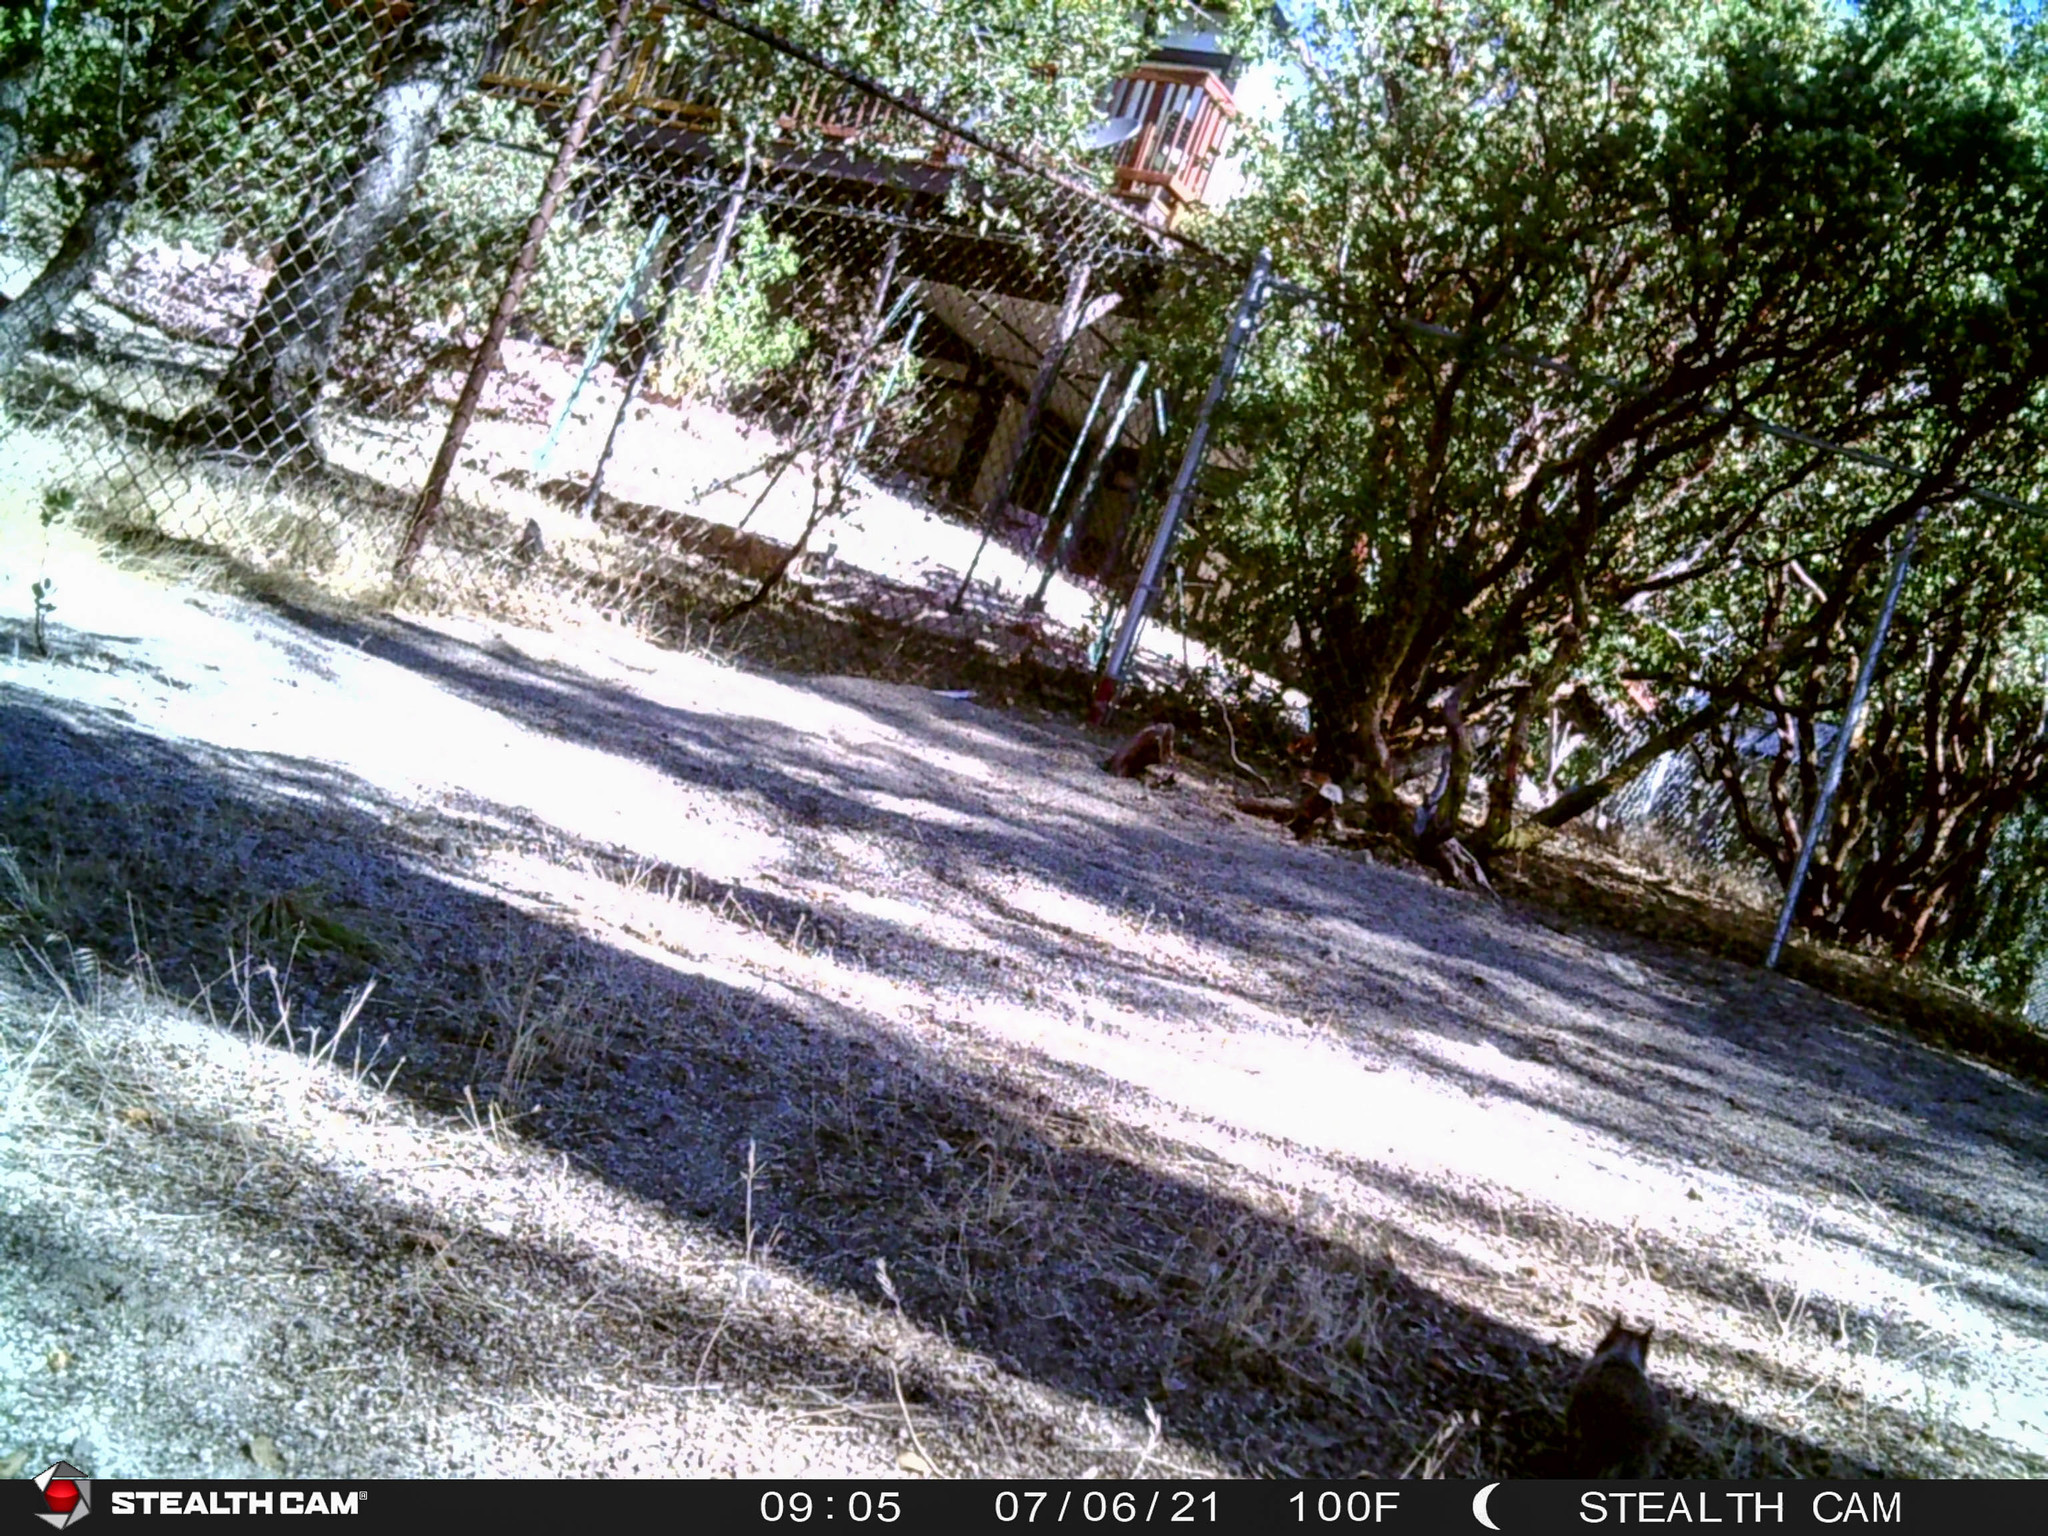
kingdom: Animalia
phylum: Chordata
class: Mammalia
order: Rodentia
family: Sciuridae
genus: Otospermophilus
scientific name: Otospermophilus beecheyi
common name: California ground squirrel
